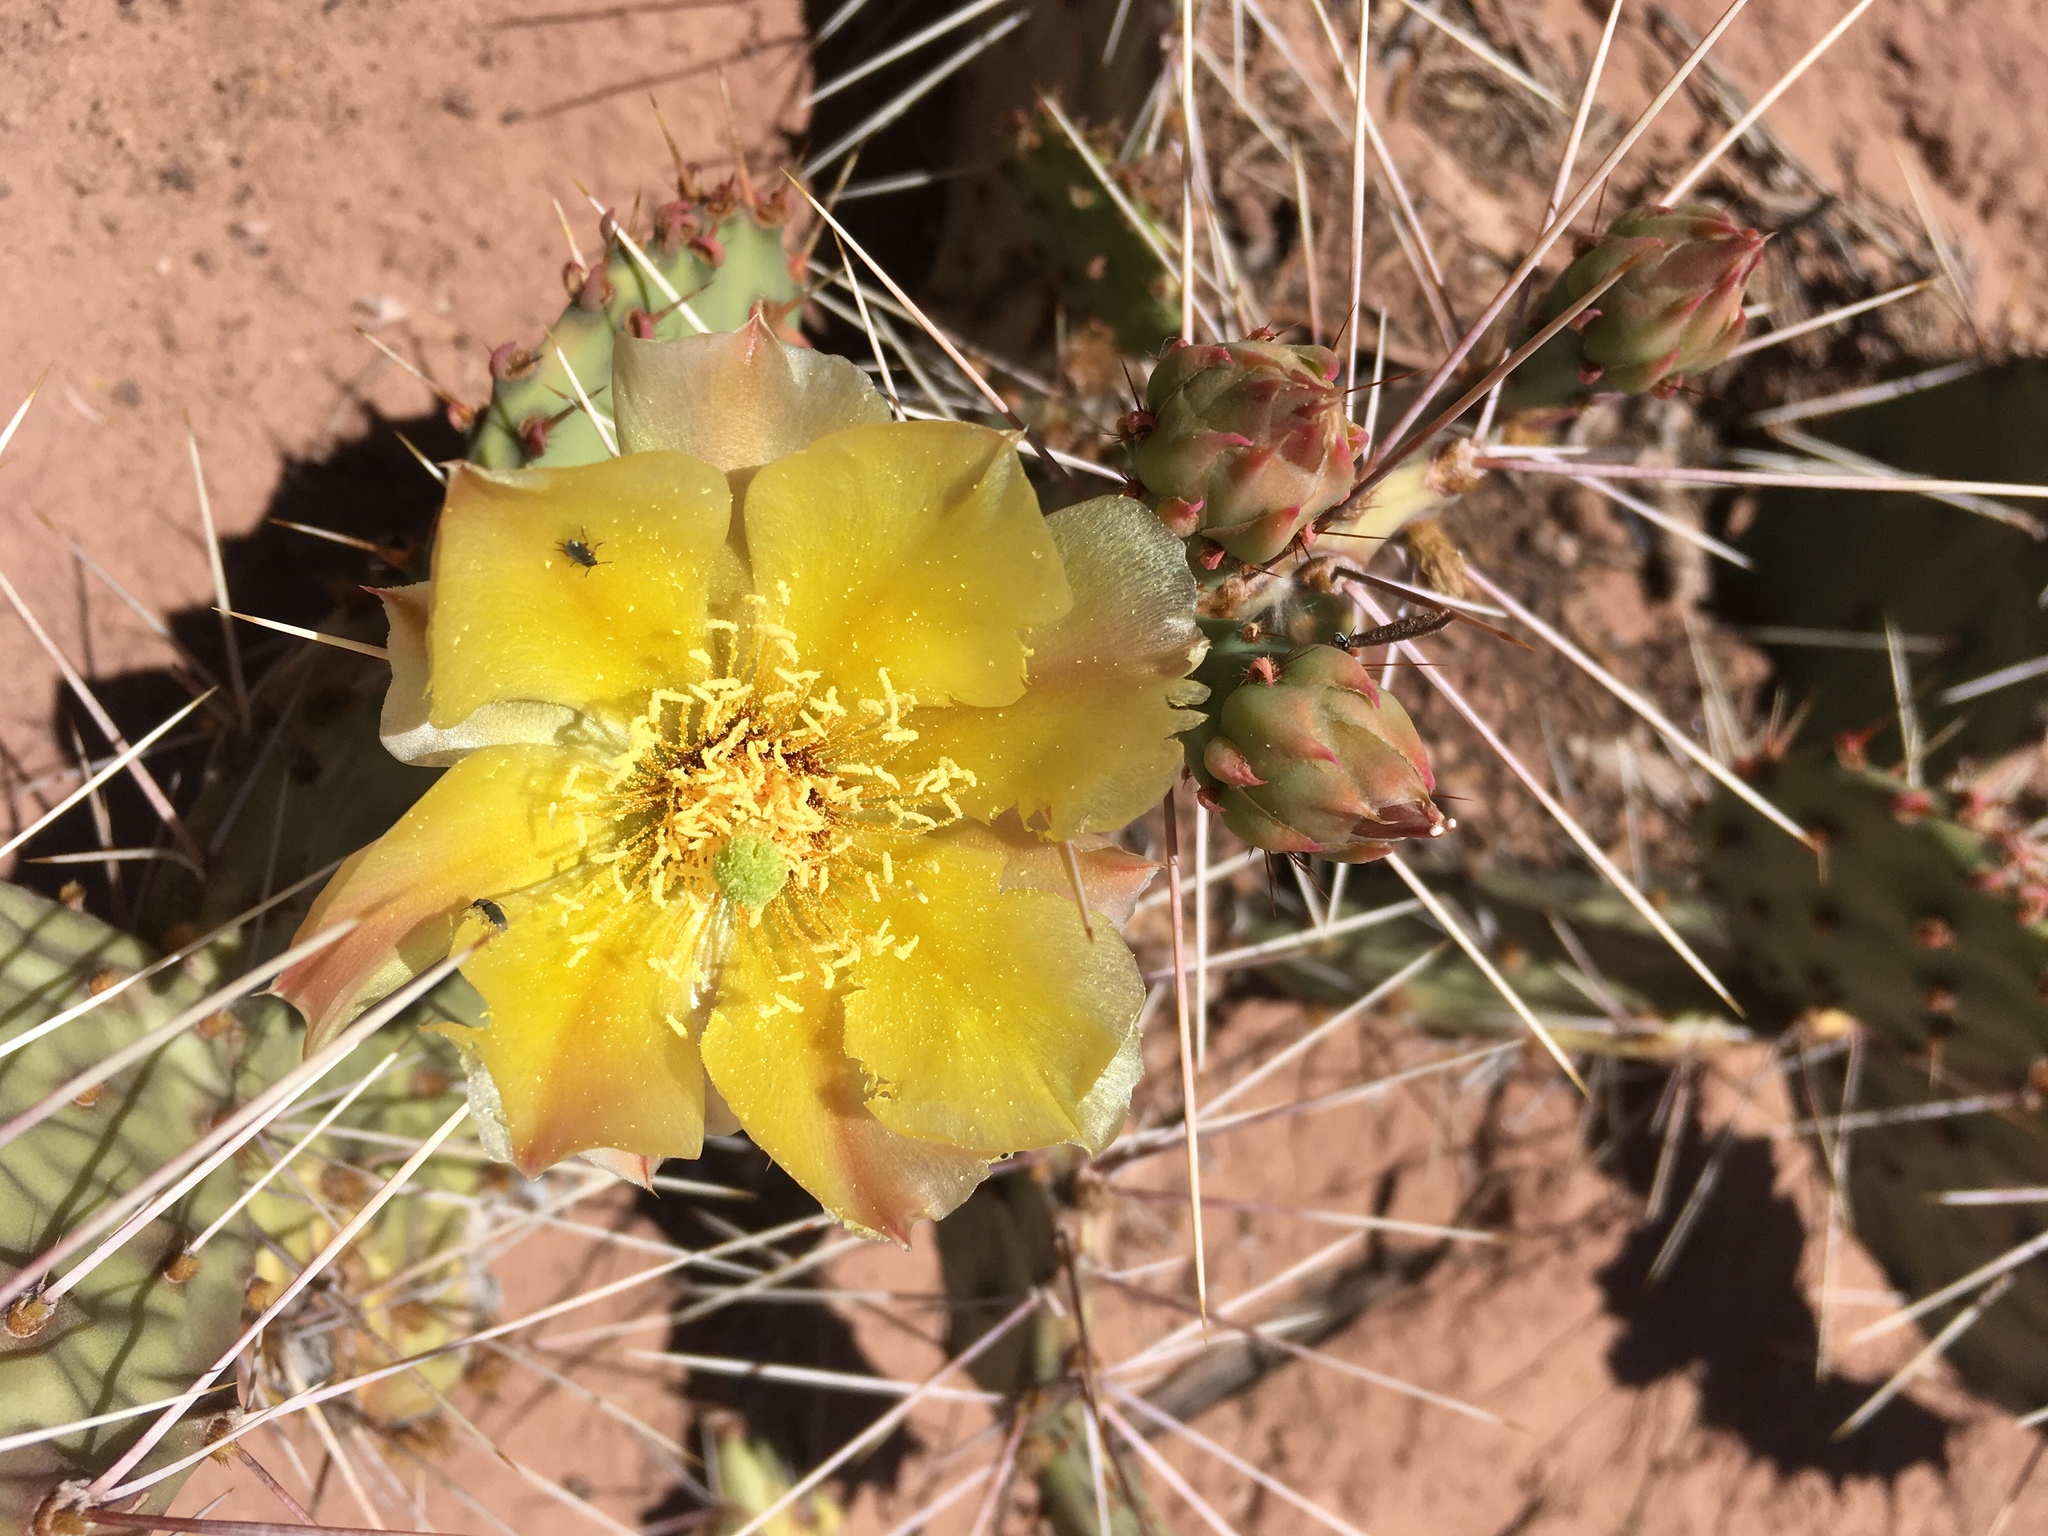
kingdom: Plantae
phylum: Tracheophyta
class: Magnoliopsida
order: Caryophyllales
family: Cactaceae
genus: Opuntia
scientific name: Opuntia polyacantha
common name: Plains prickly-pear
